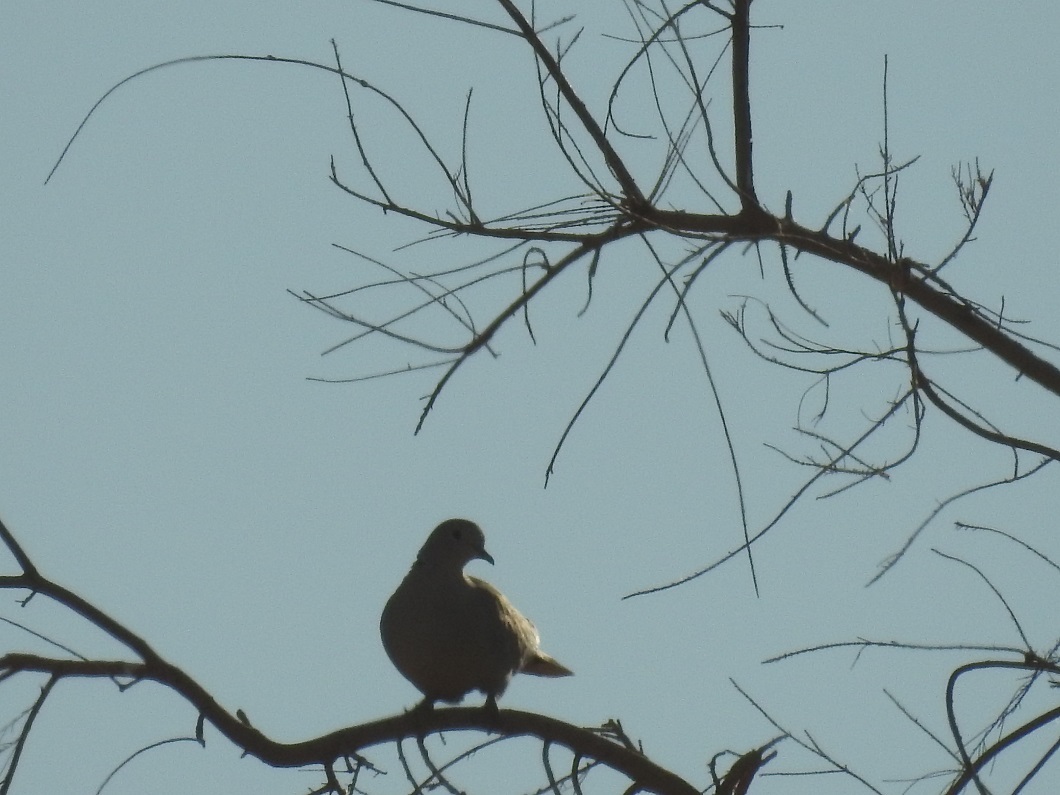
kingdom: Animalia
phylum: Chordata
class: Aves
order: Columbiformes
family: Columbidae
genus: Streptopelia
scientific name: Streptopelia decaocto
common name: Eurasian collared dove
